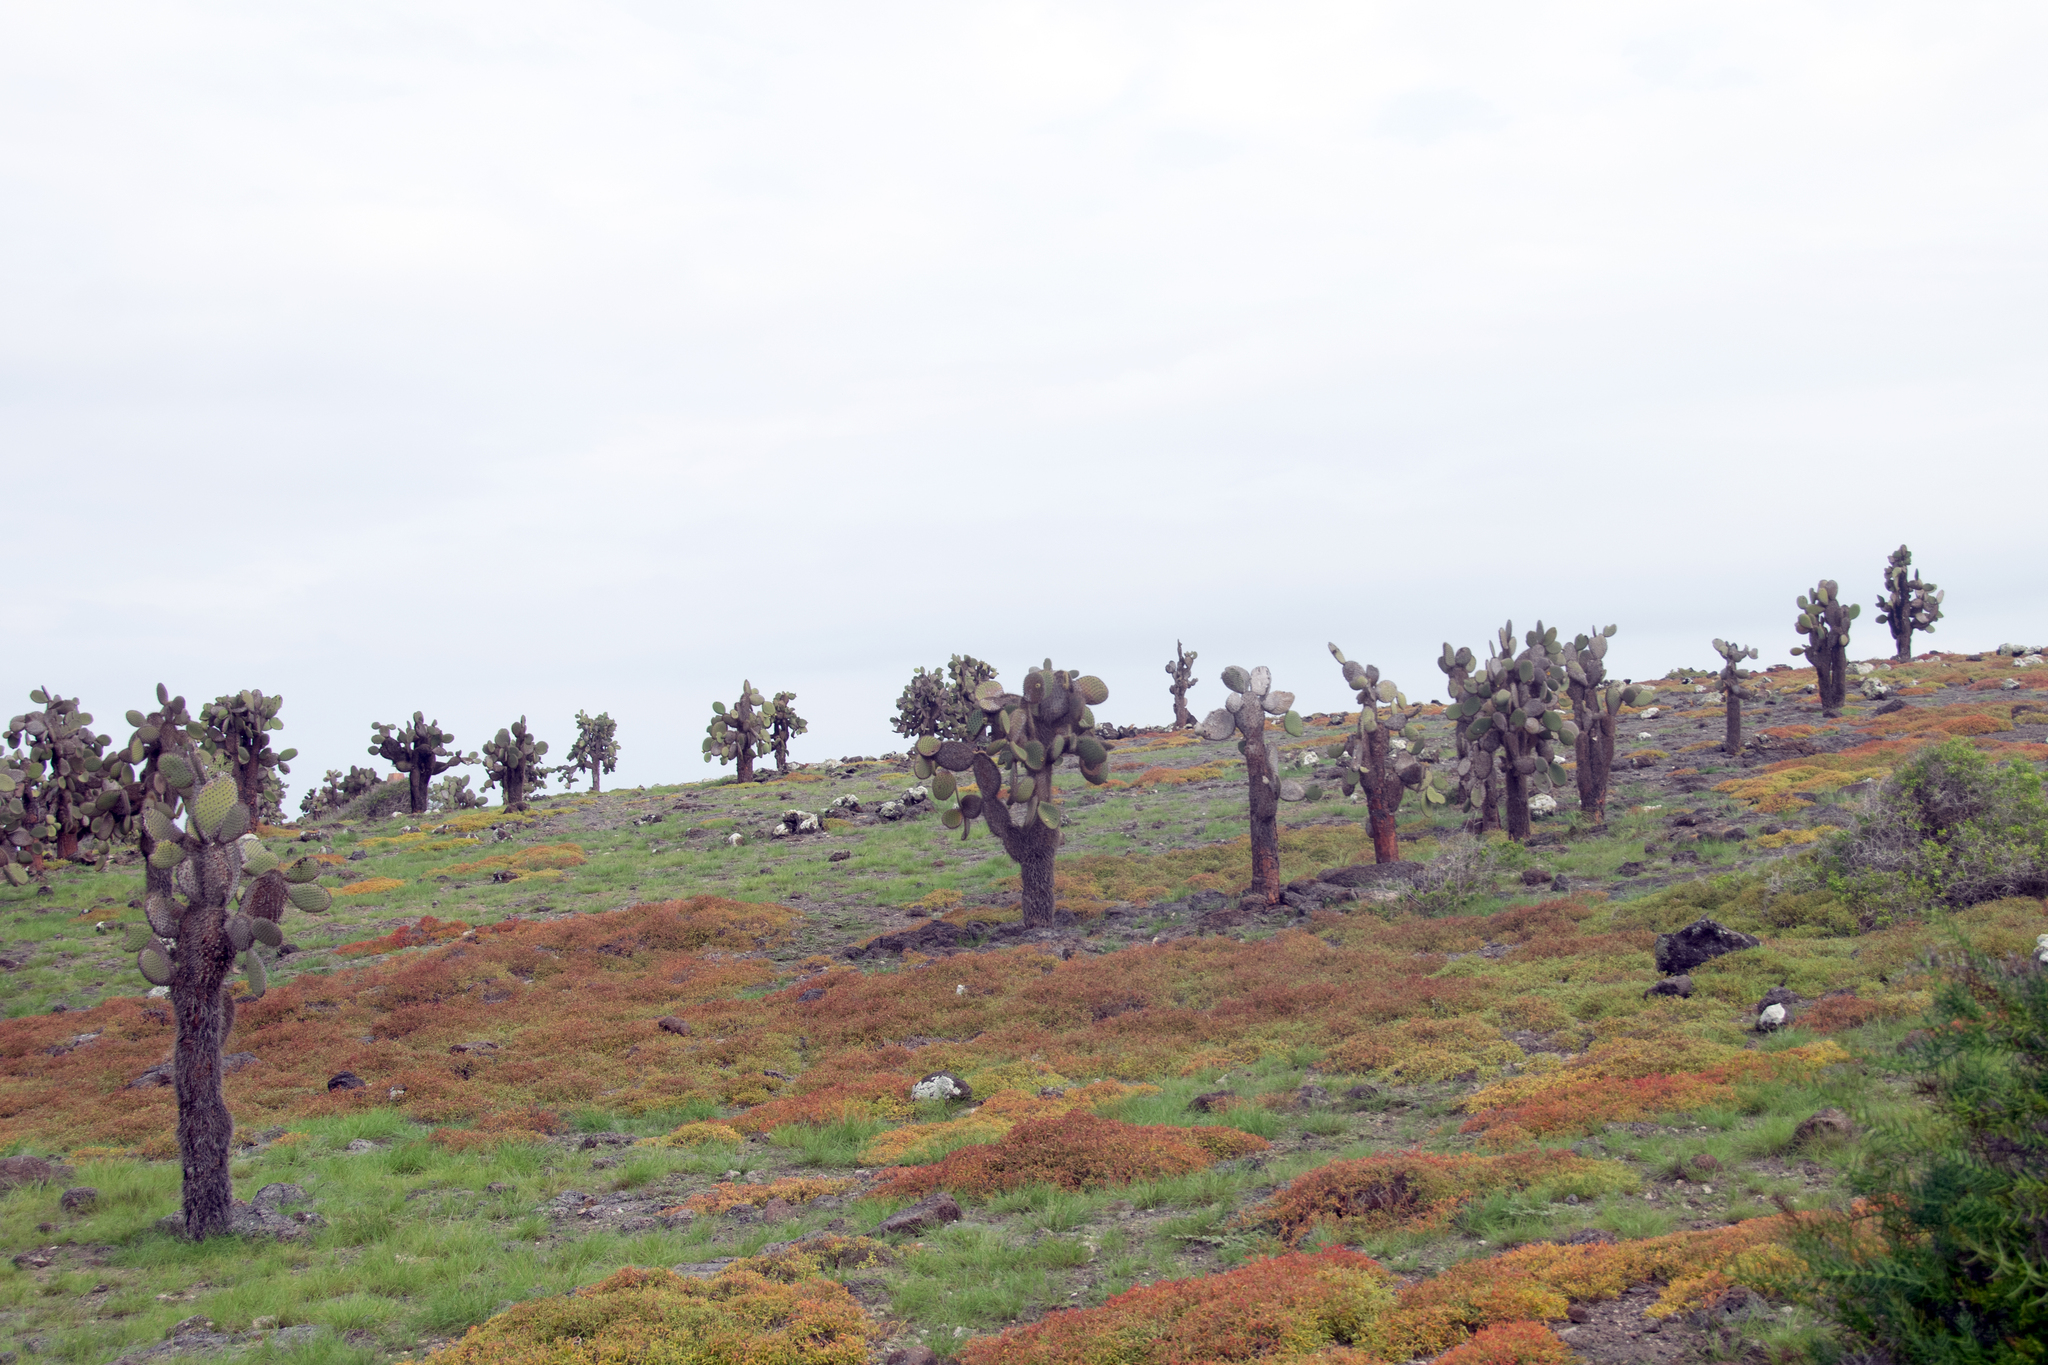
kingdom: Plantae
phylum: Tracheophyta
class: Magnoliopsida
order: Caryophyllales
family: Cactaceae
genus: Opuntia
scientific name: Opuntia galapageia
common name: Galápagos prickly pear
